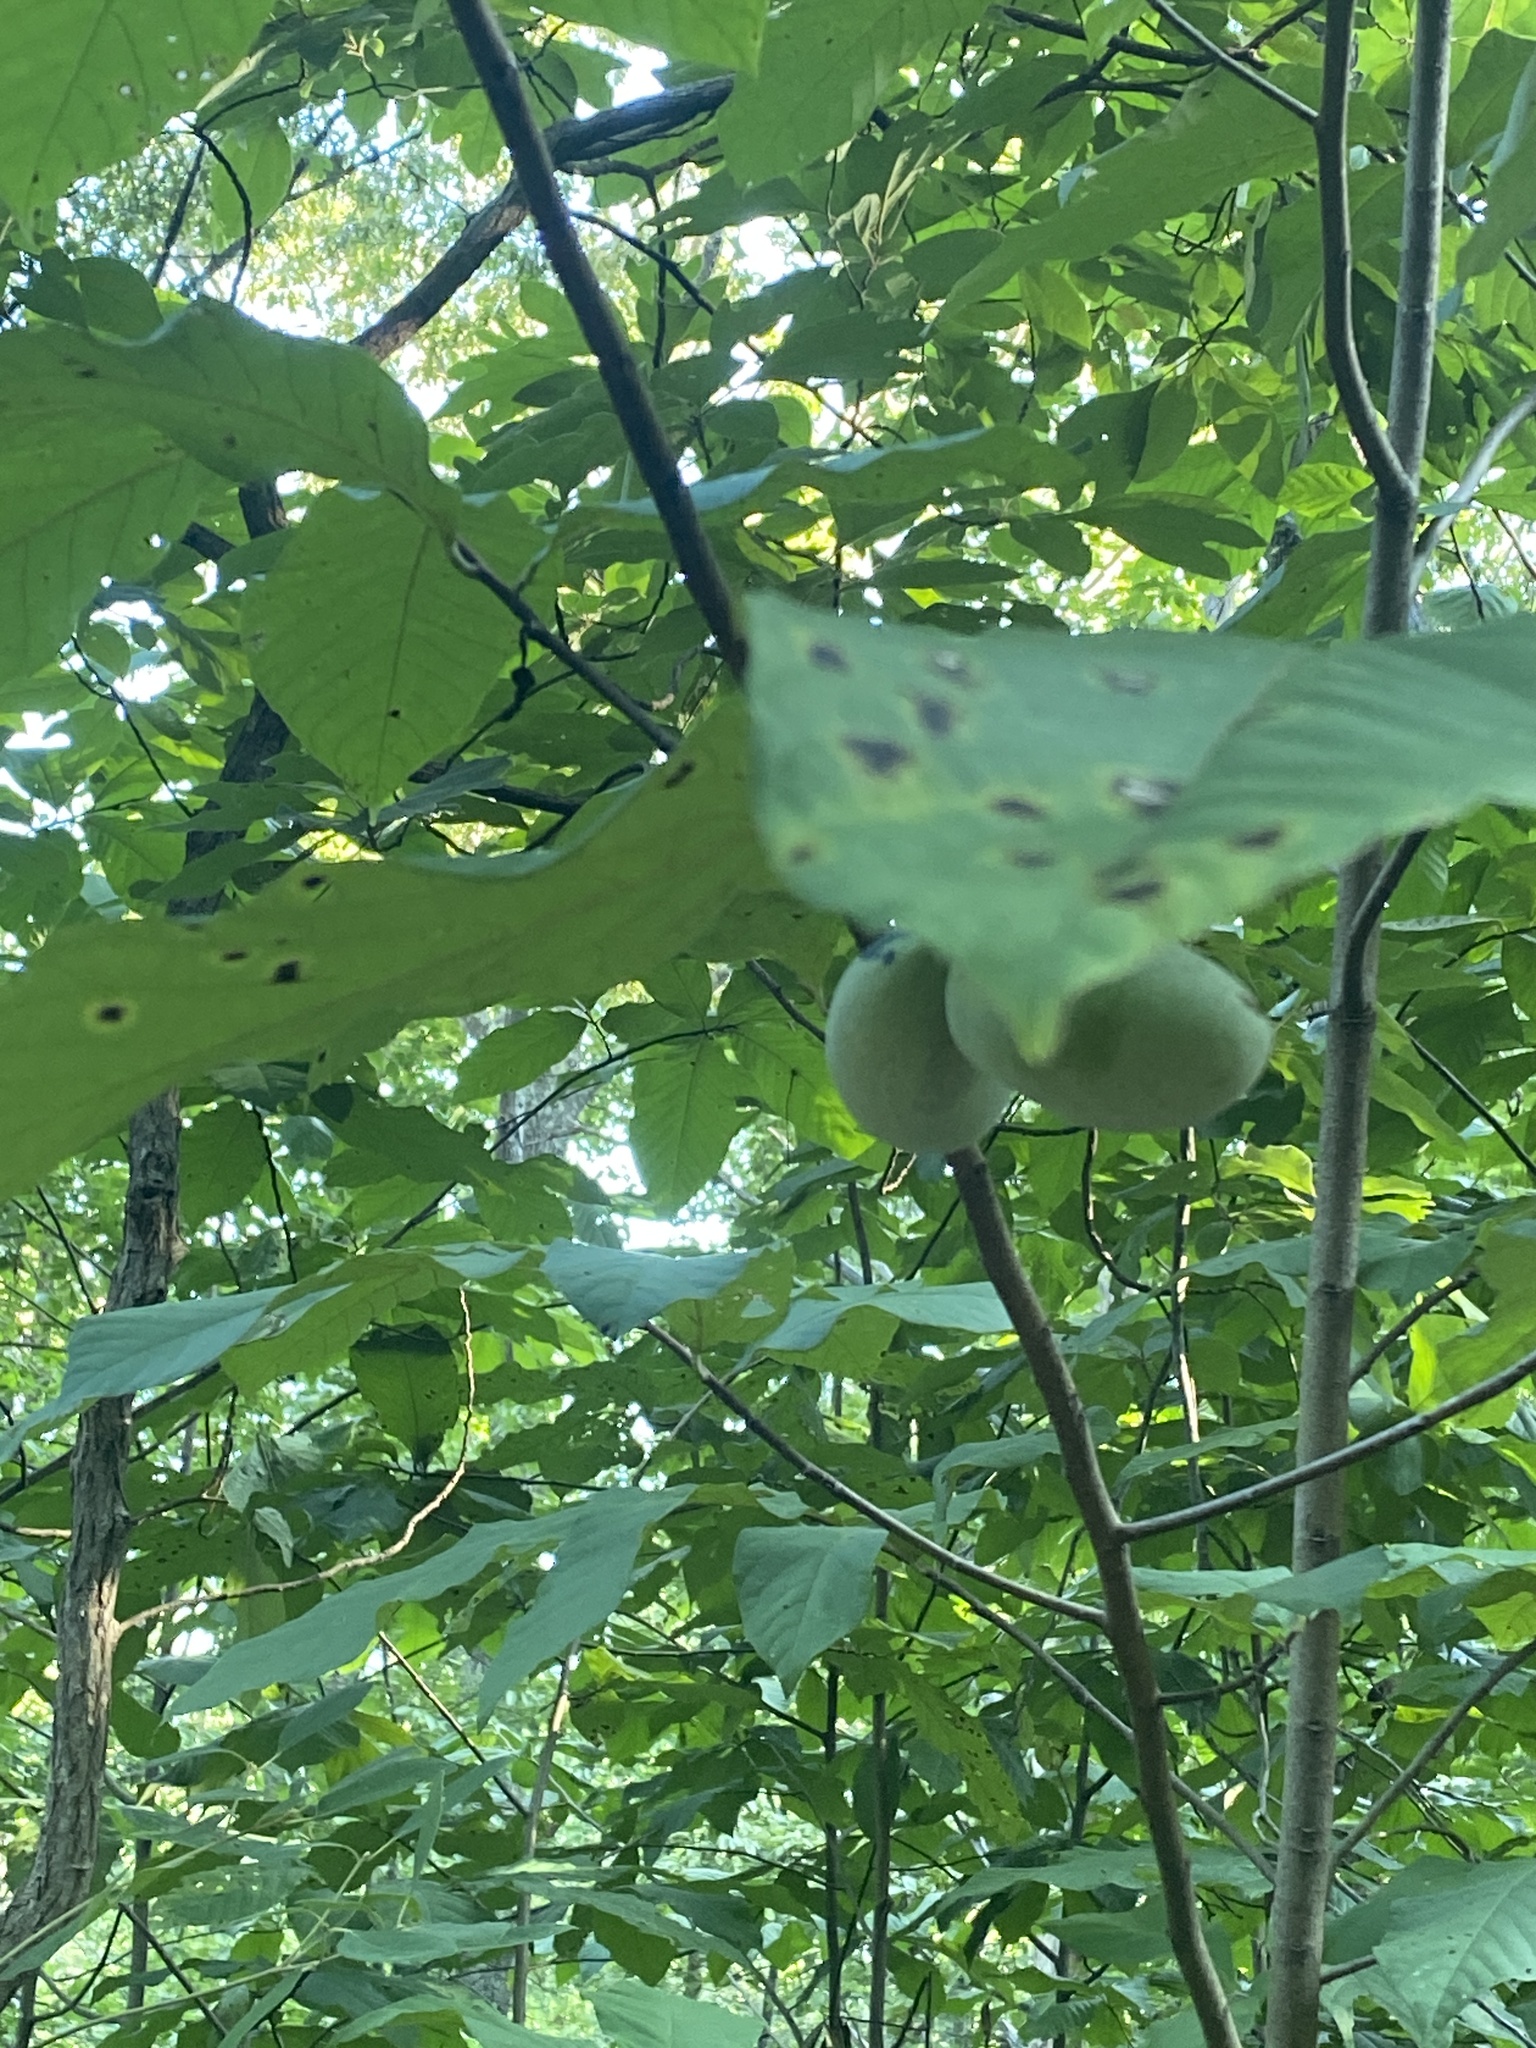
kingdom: Plantae
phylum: Tracheophyta
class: Magnoliopsida
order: Magnoliales
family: Annonaceae
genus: Asimina
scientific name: Asimina triloba
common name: Dog-banana
